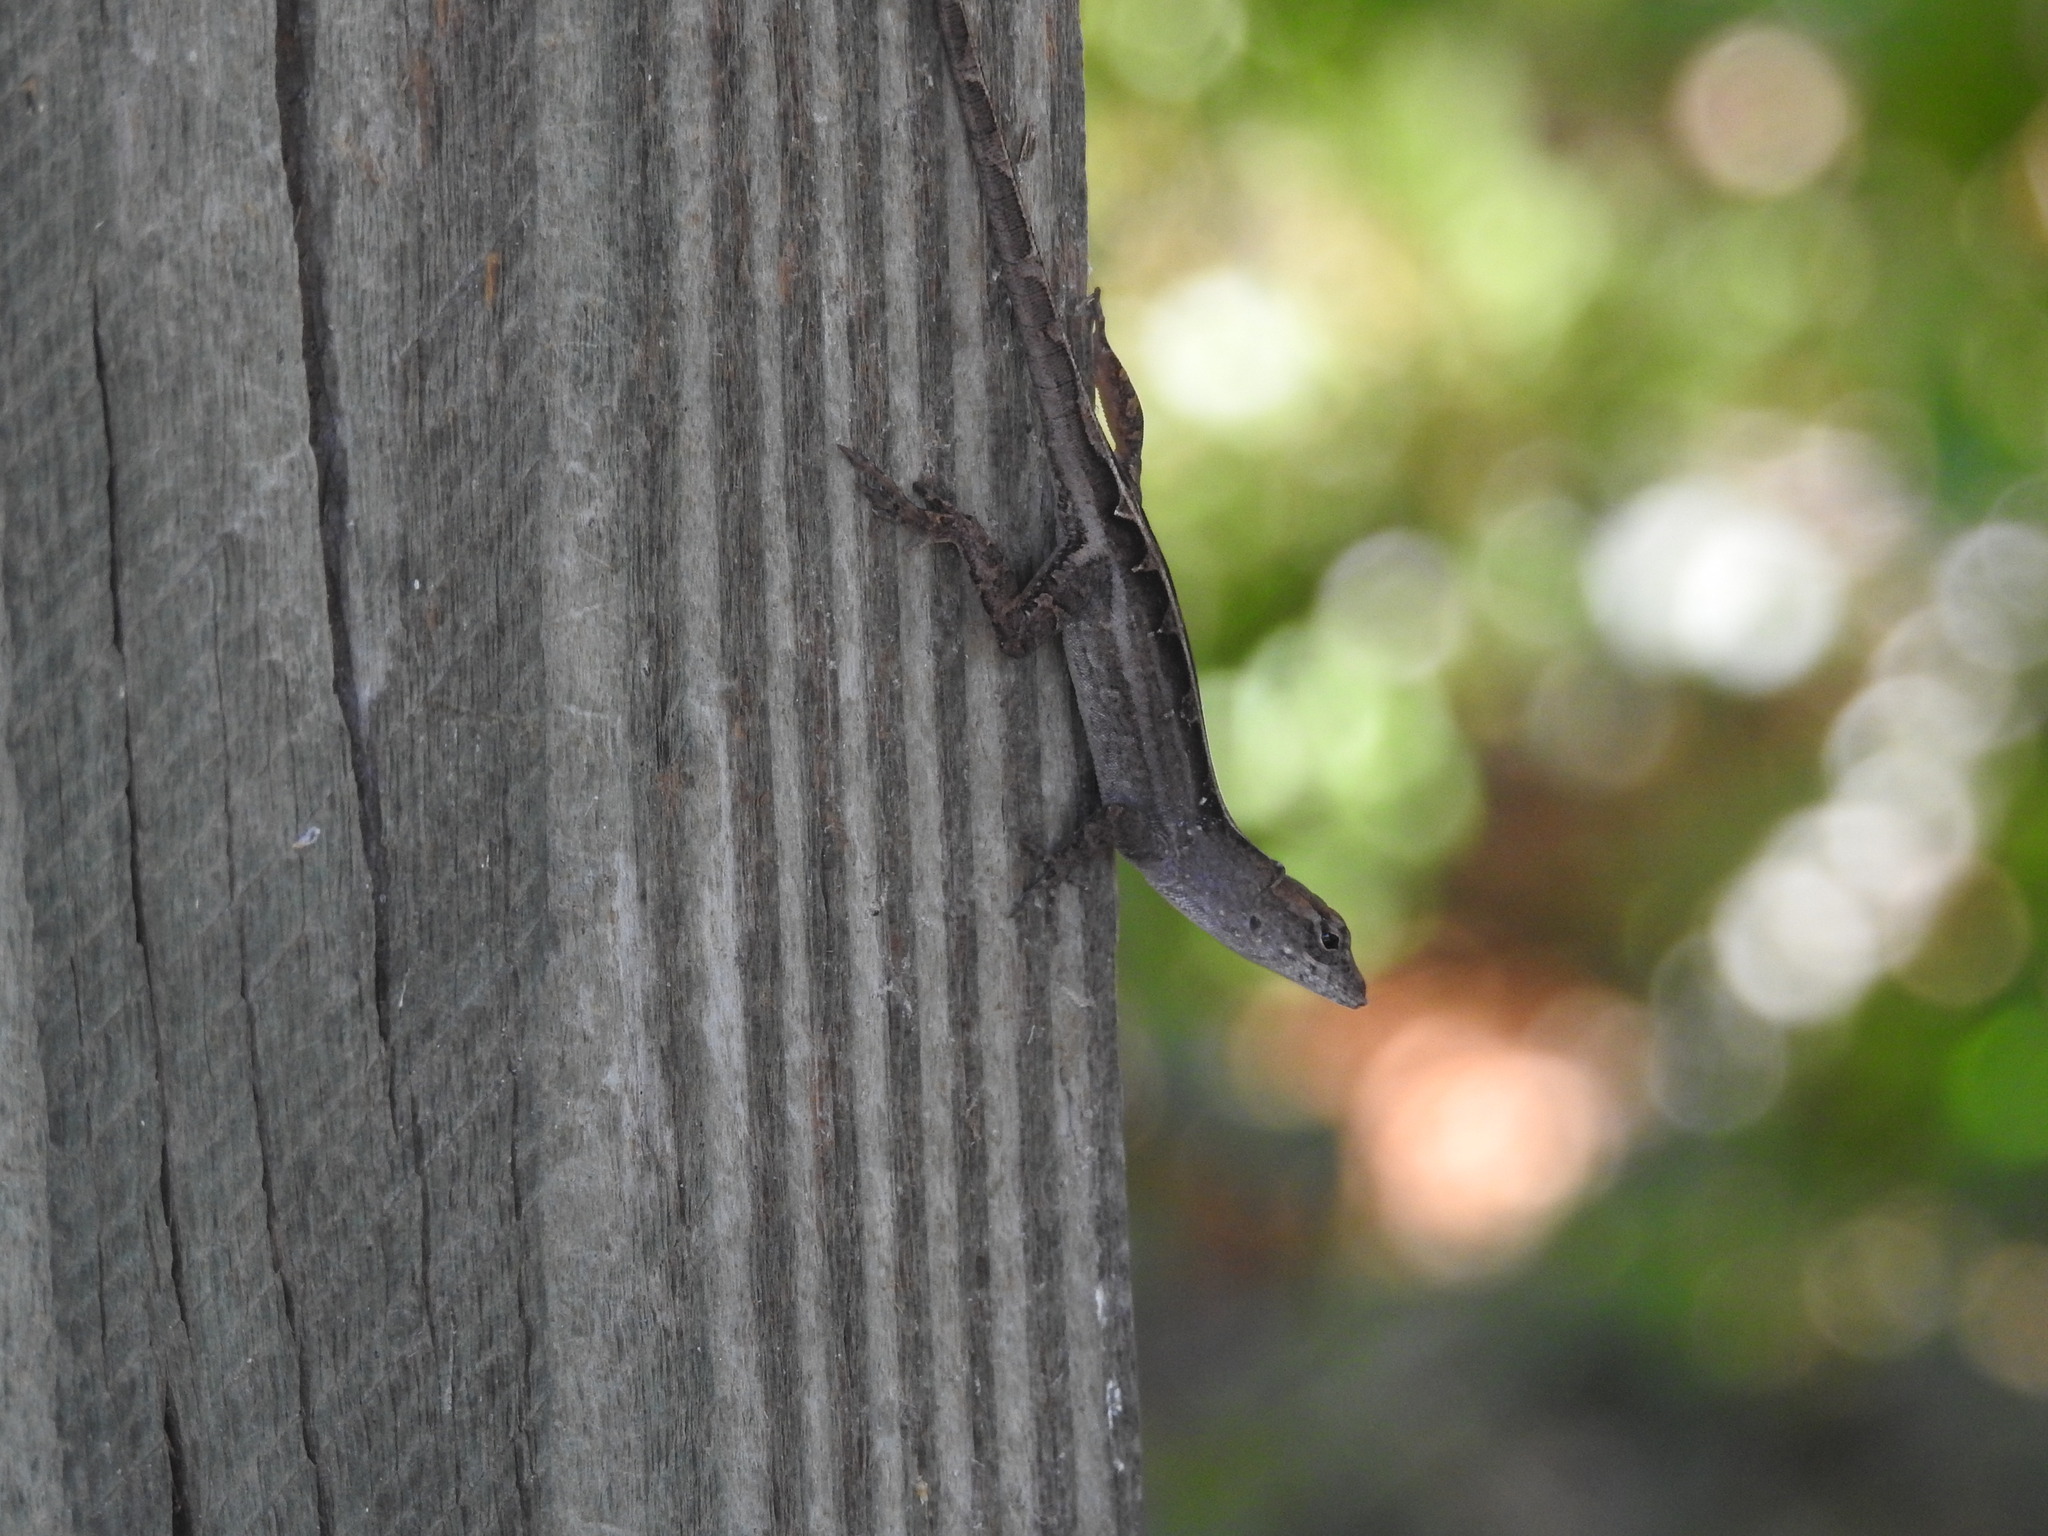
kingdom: Animalia
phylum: Chordata
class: Squamata
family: Dactyloidae
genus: Anolis
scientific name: Anolis sagrei
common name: Brown anole
